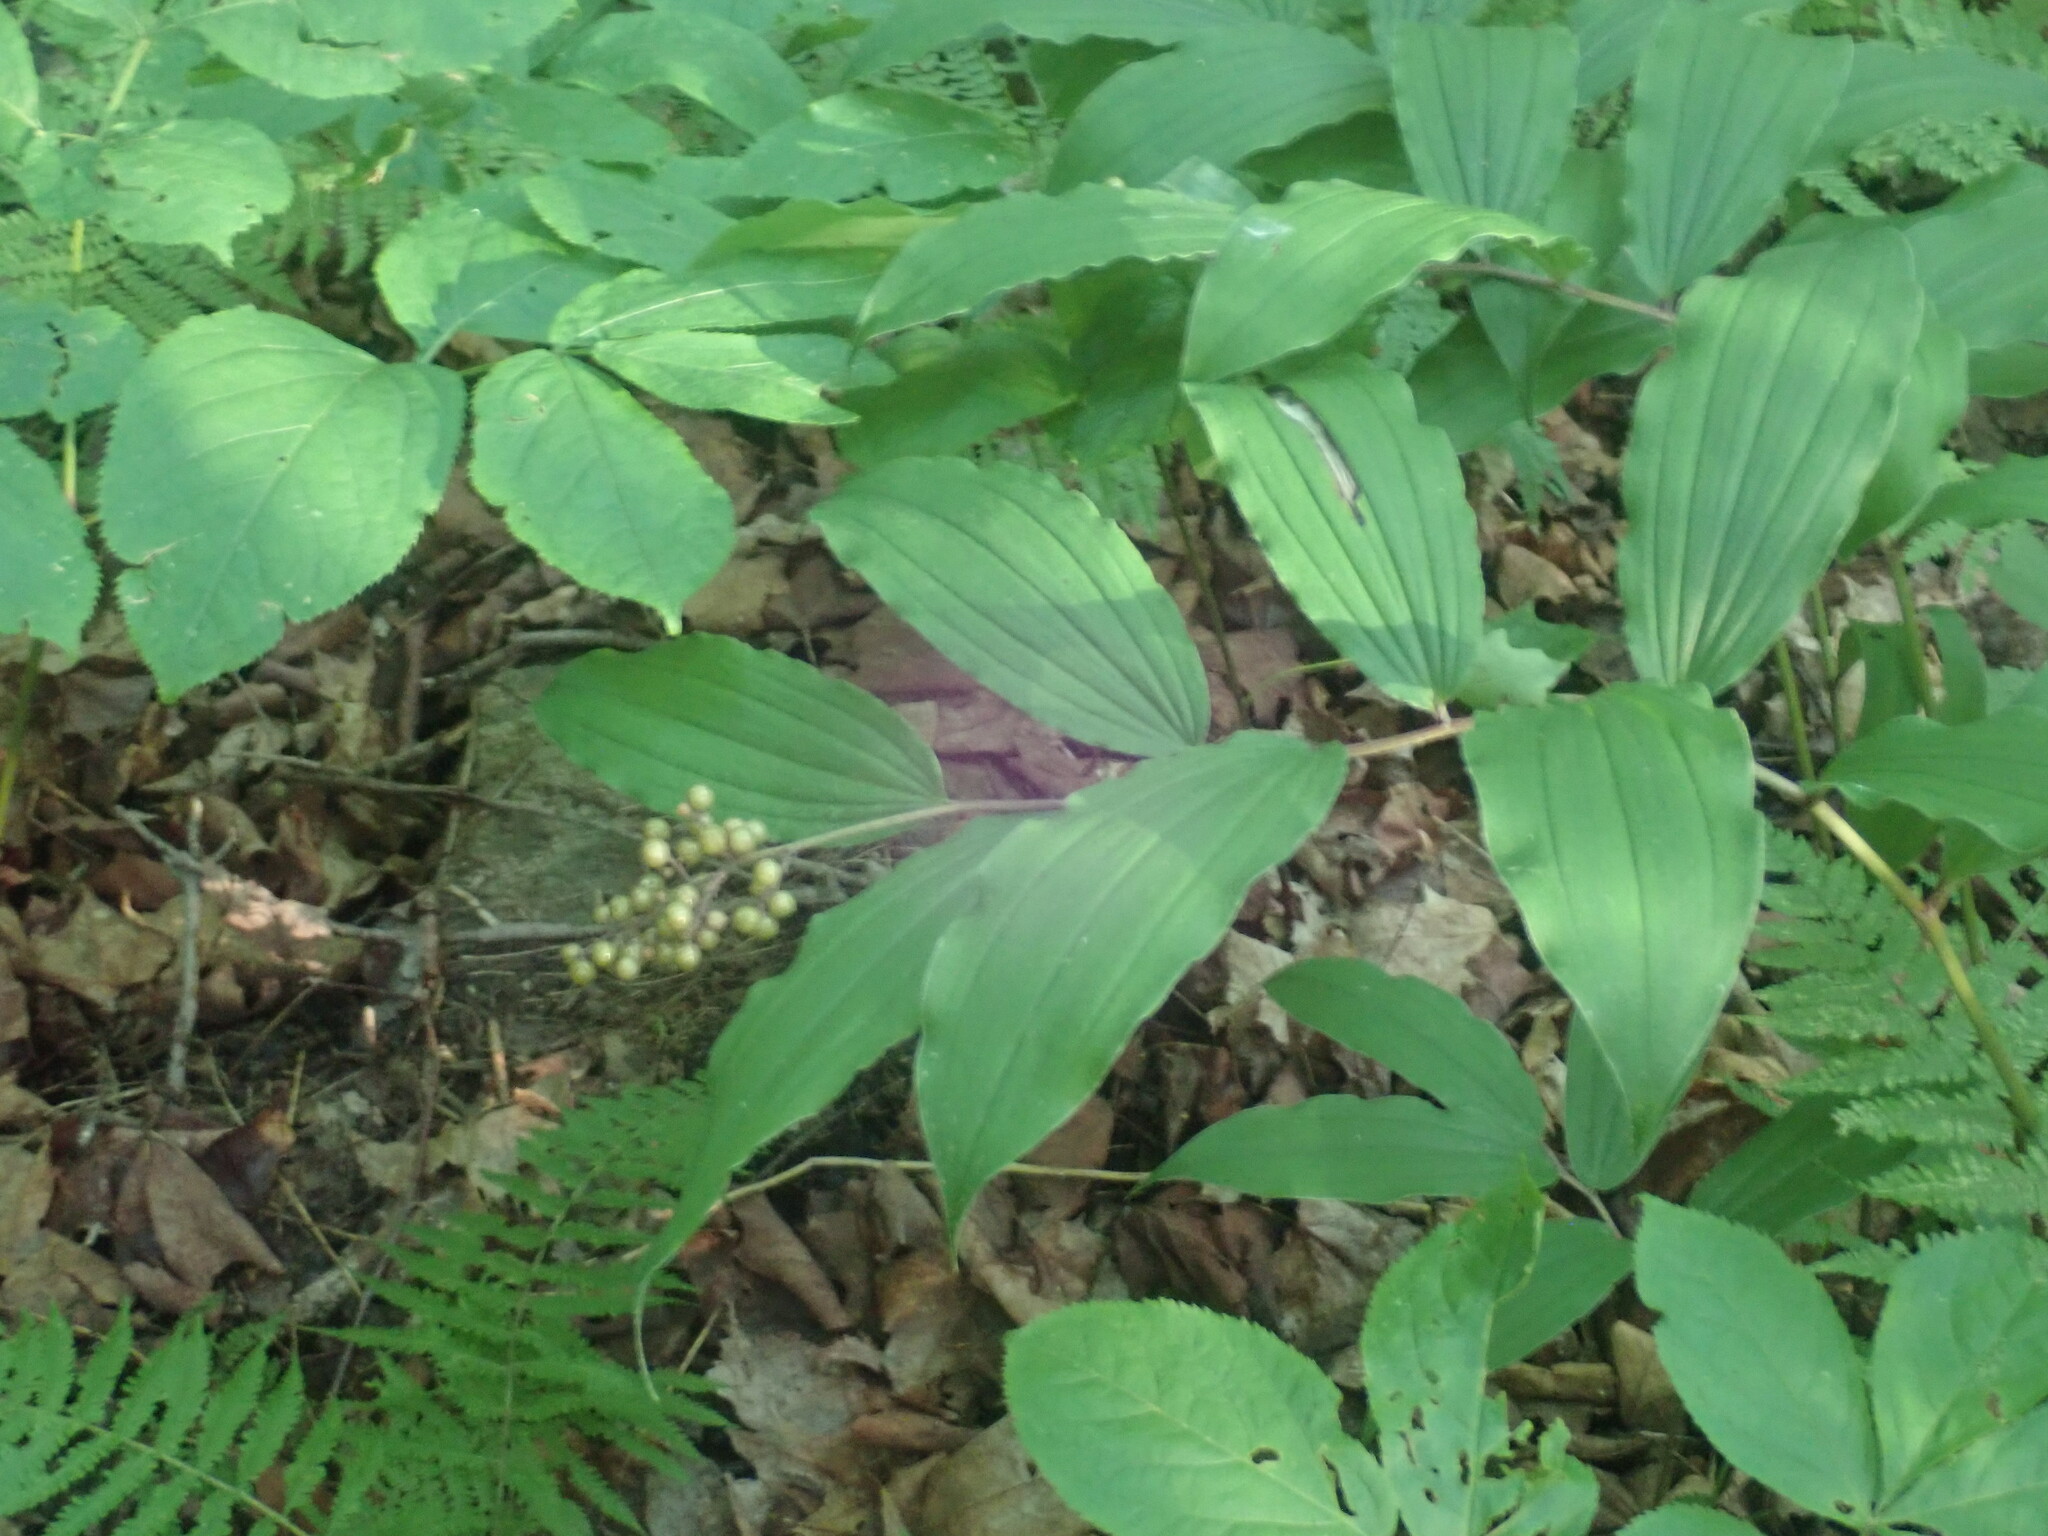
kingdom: Plantae
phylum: Tracheophyta
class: Liliopsida
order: Asparagales
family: Asparagaceae
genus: Maianthemum
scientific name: Maianthemum racemosum
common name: False spikenard
